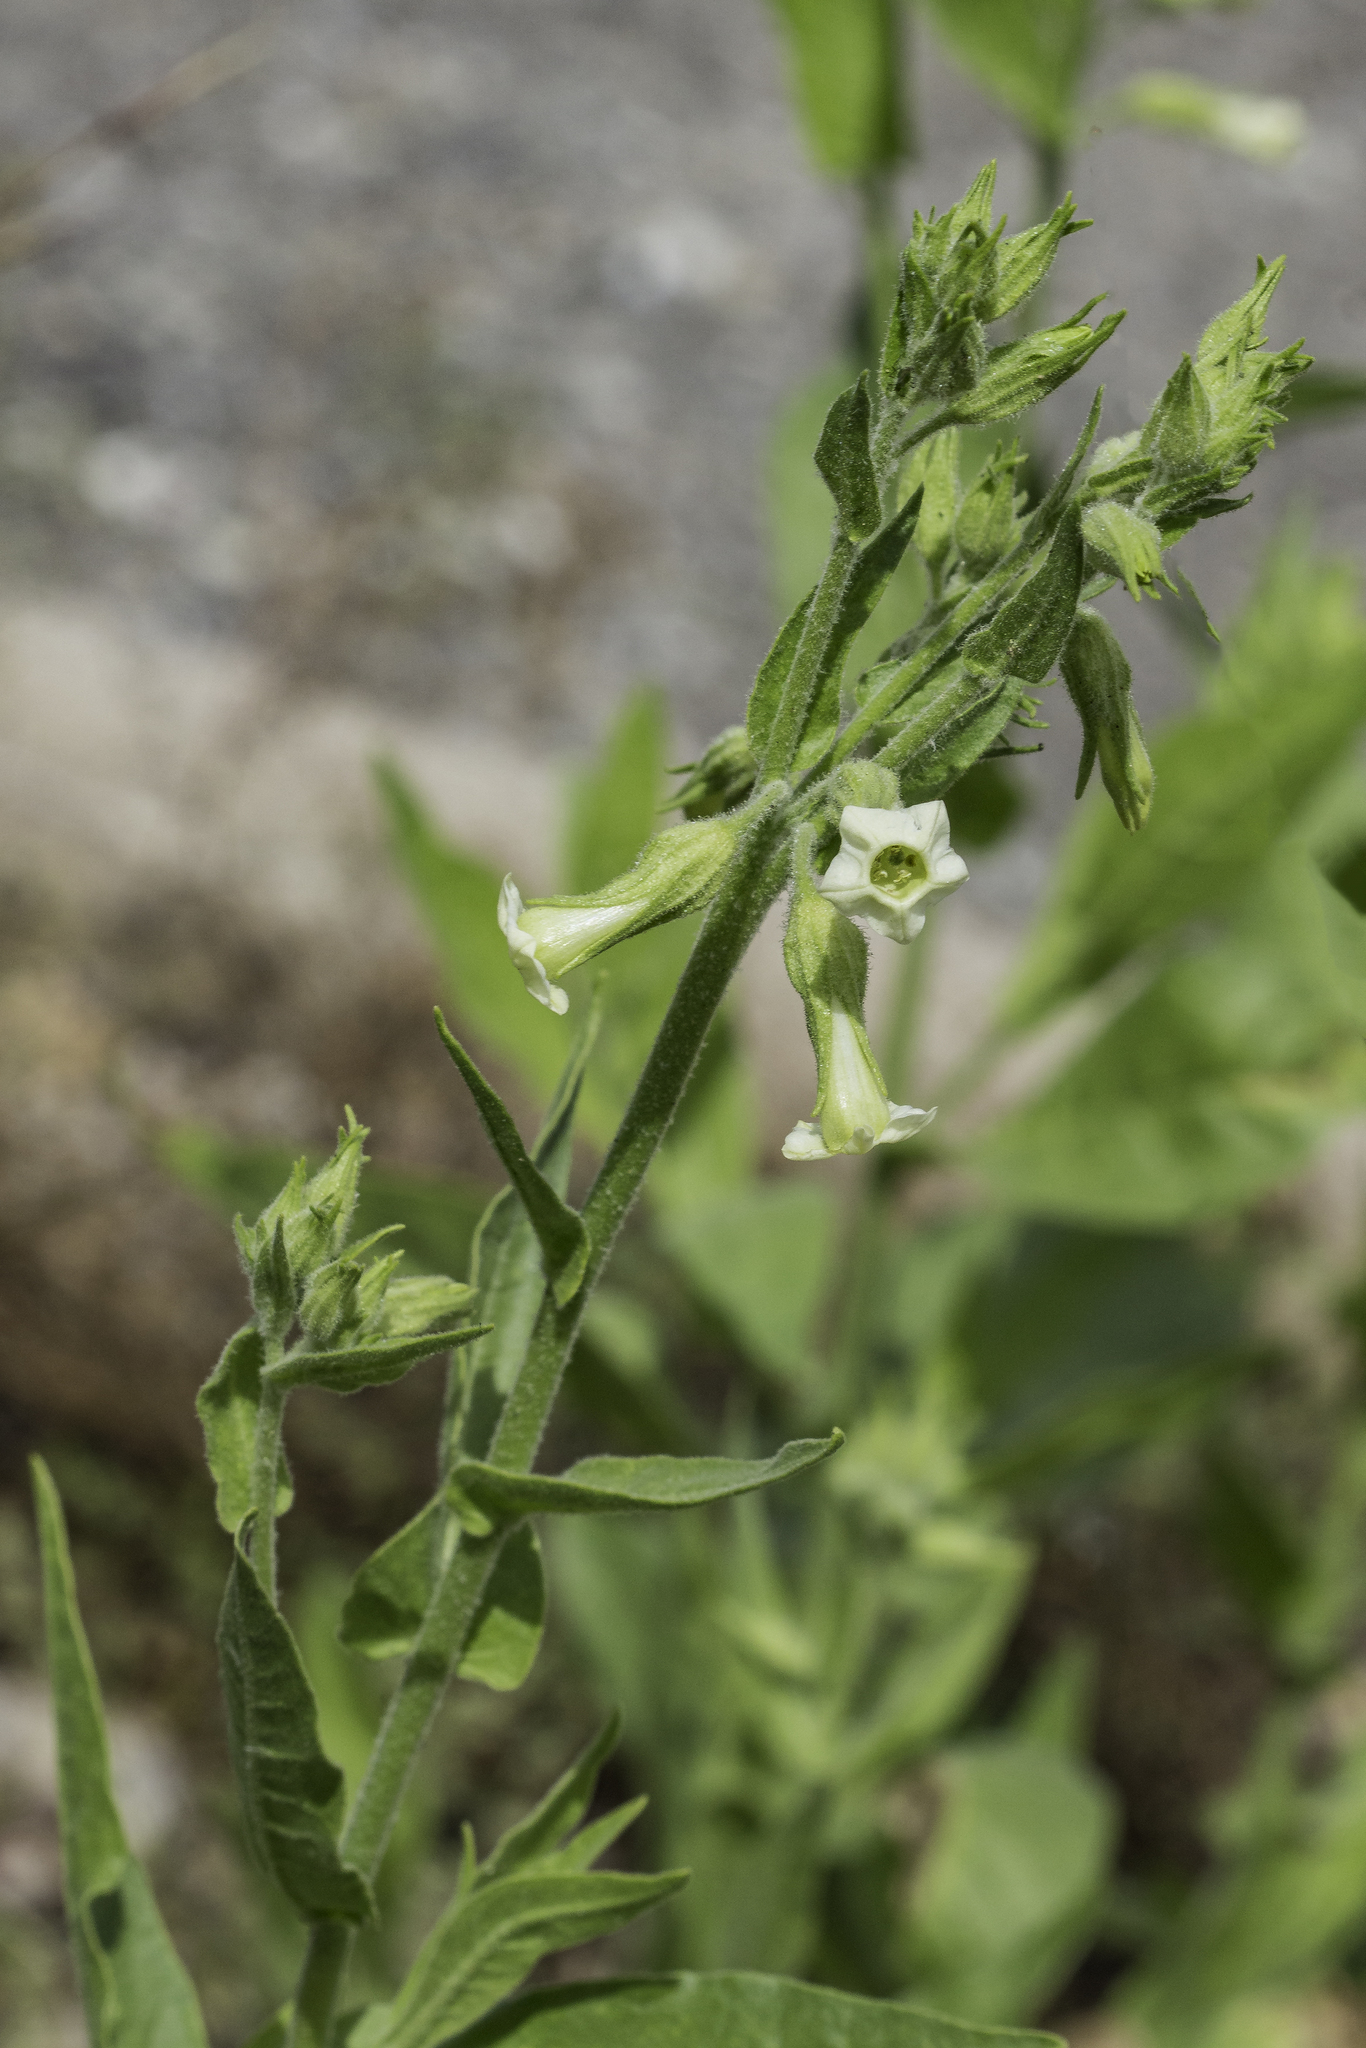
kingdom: Plantae
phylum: Tracheophyta
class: Magnoliopsida
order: Solanales
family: Solanaceae
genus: Nicotiana
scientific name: Nicotiana obtusifolia
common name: Desert tobacco
